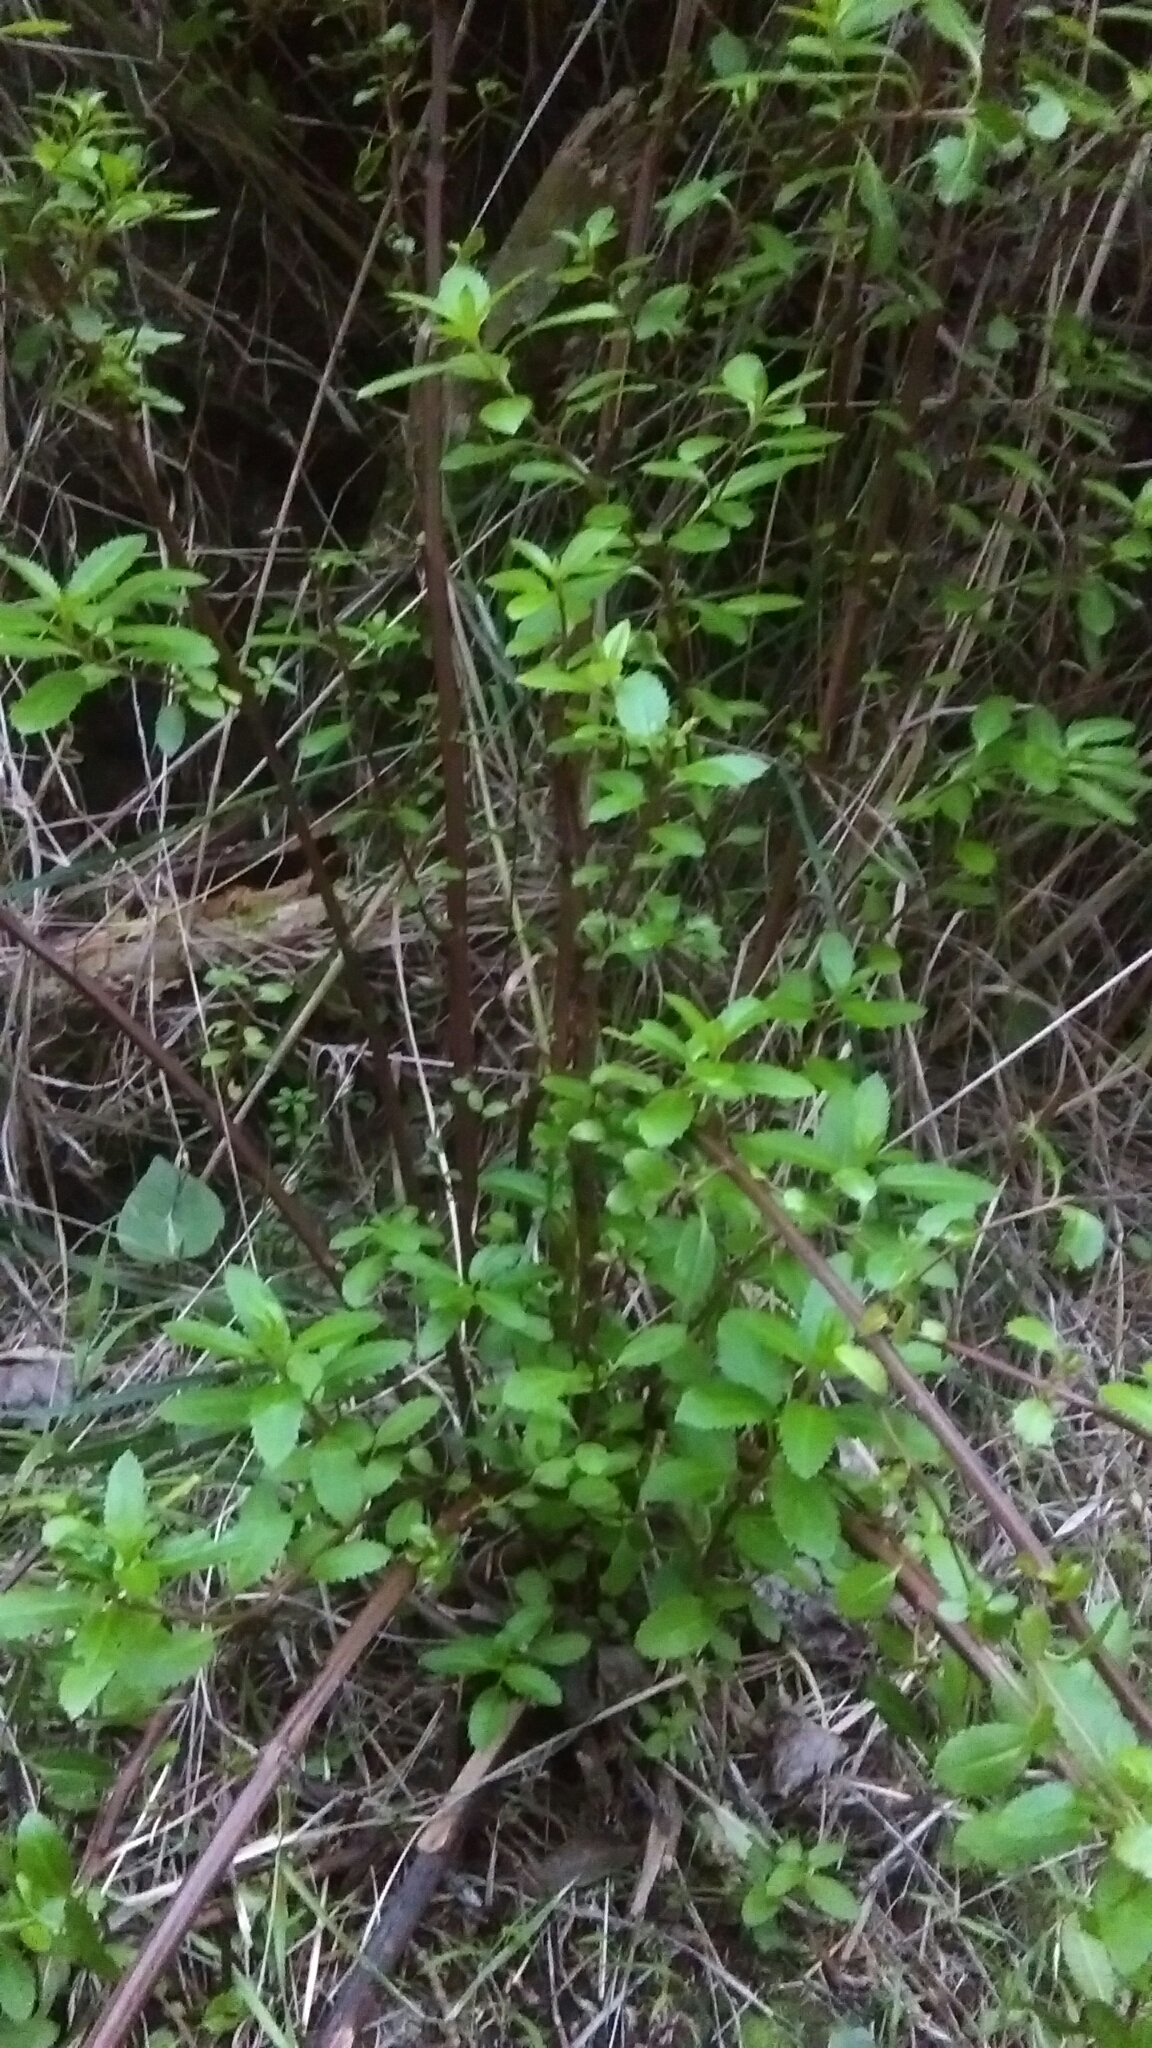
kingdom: Plantae
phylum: Tracheophyta
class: Magnoliopsida
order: Saxifragales
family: Haloragaceae
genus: Haloragis
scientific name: Haloragis erecta
